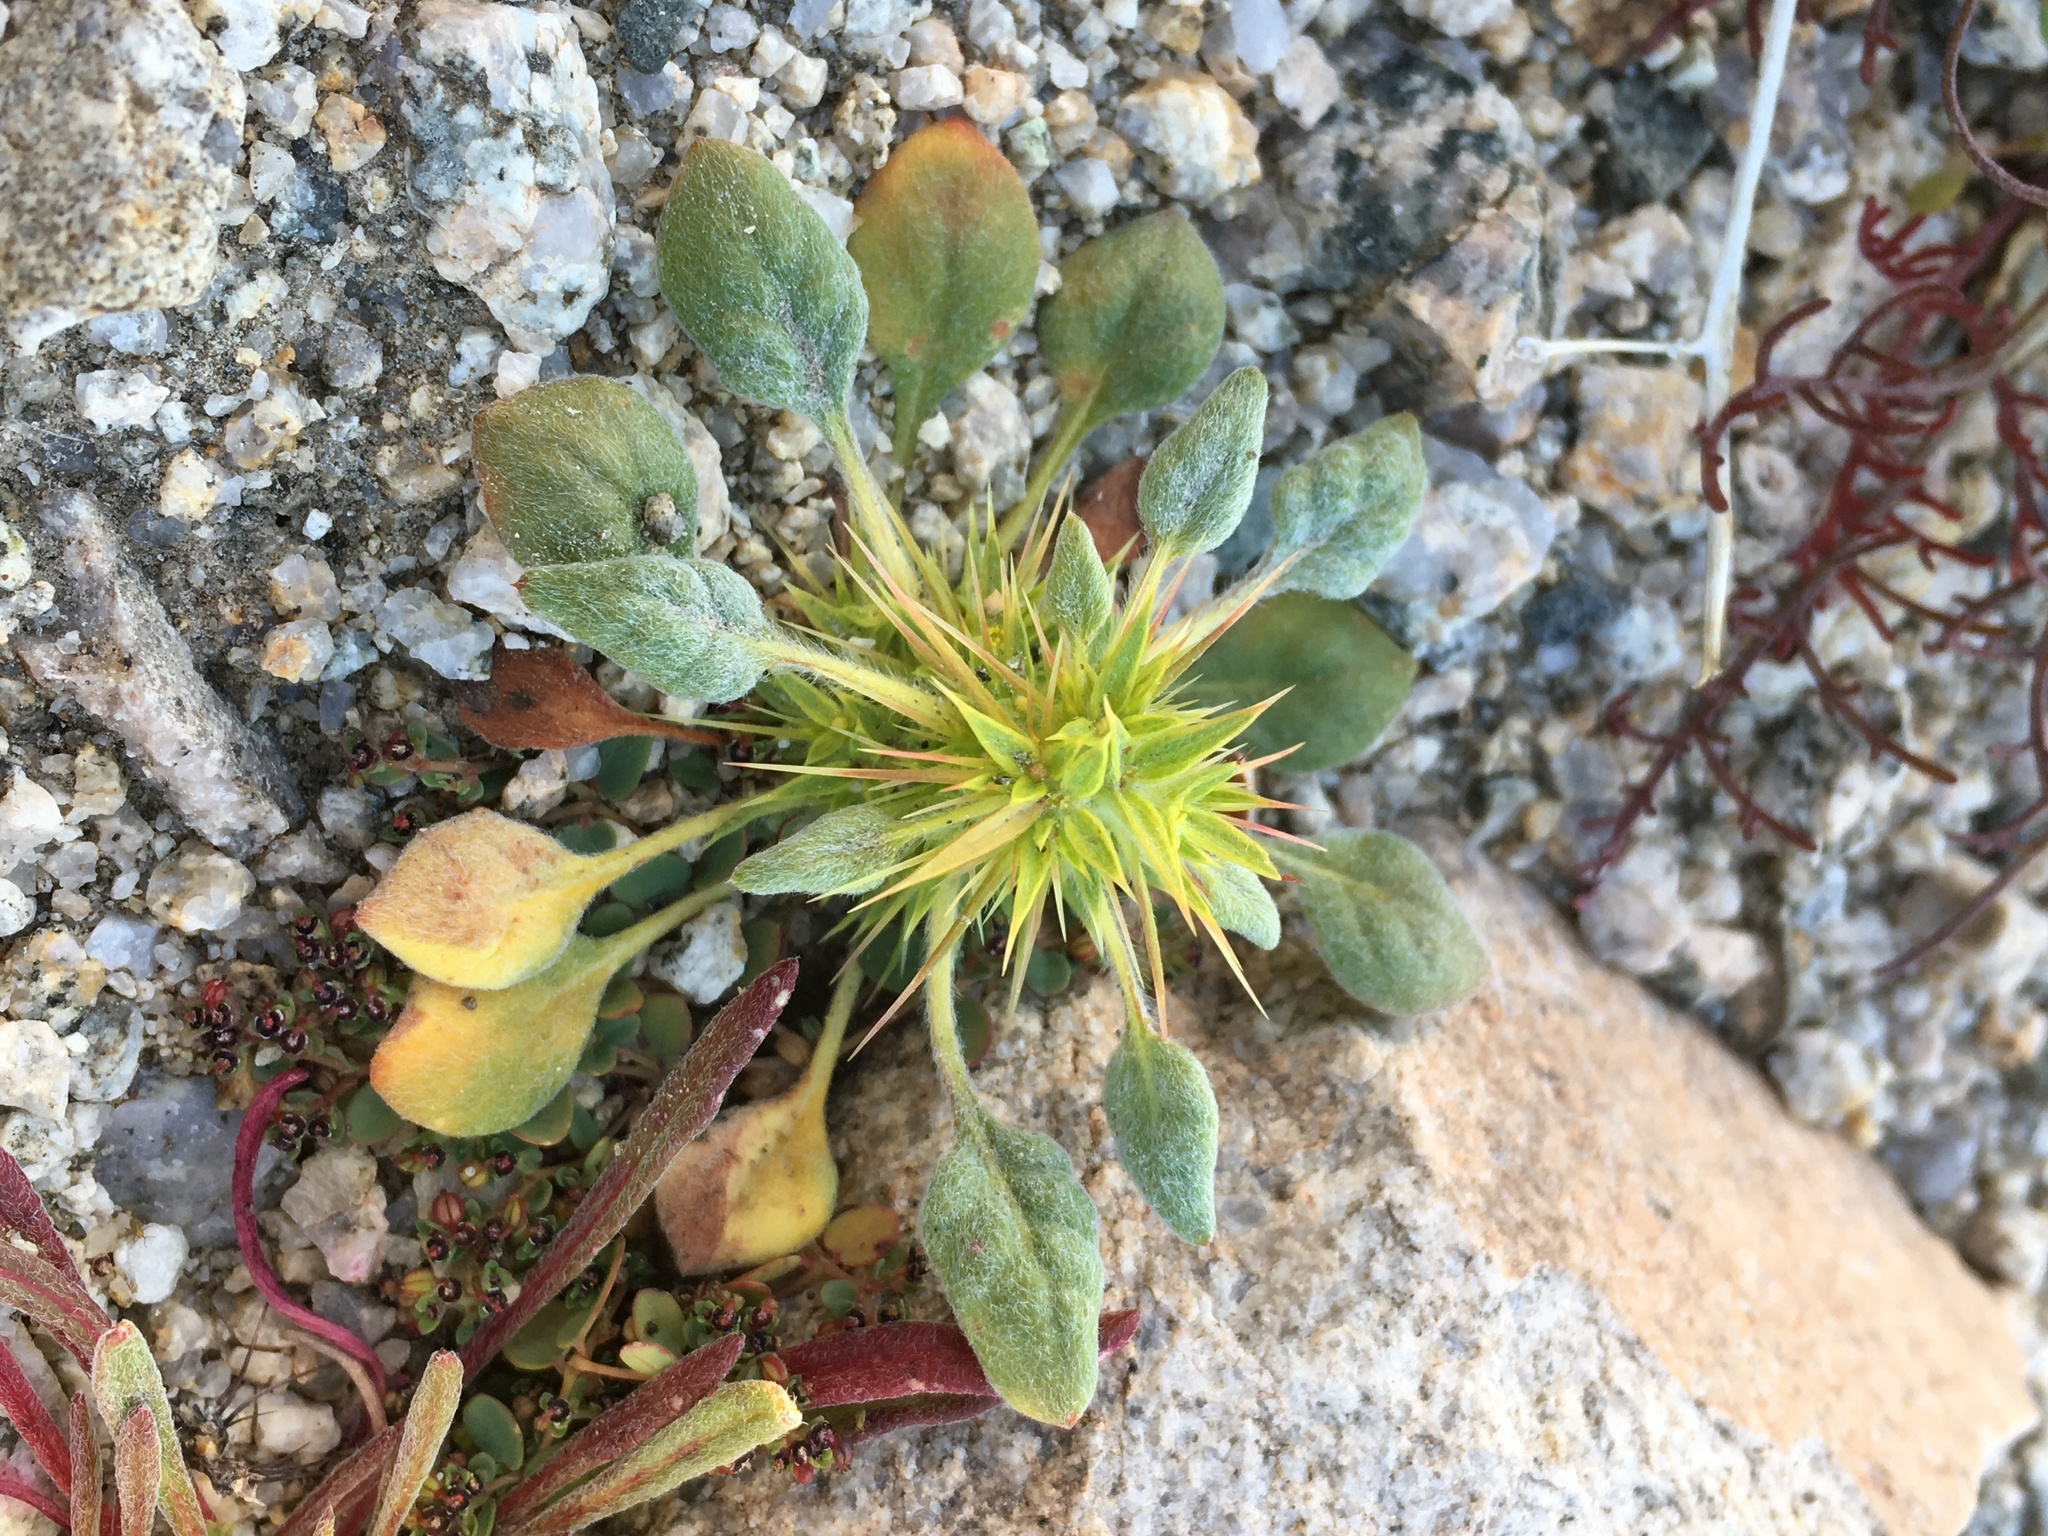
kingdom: Plantae
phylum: Tracheophyta
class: Magnoliopsida
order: Caryophyllales
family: Polygonaceae
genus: Chorizanthe
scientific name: Chorizanthe rigida
